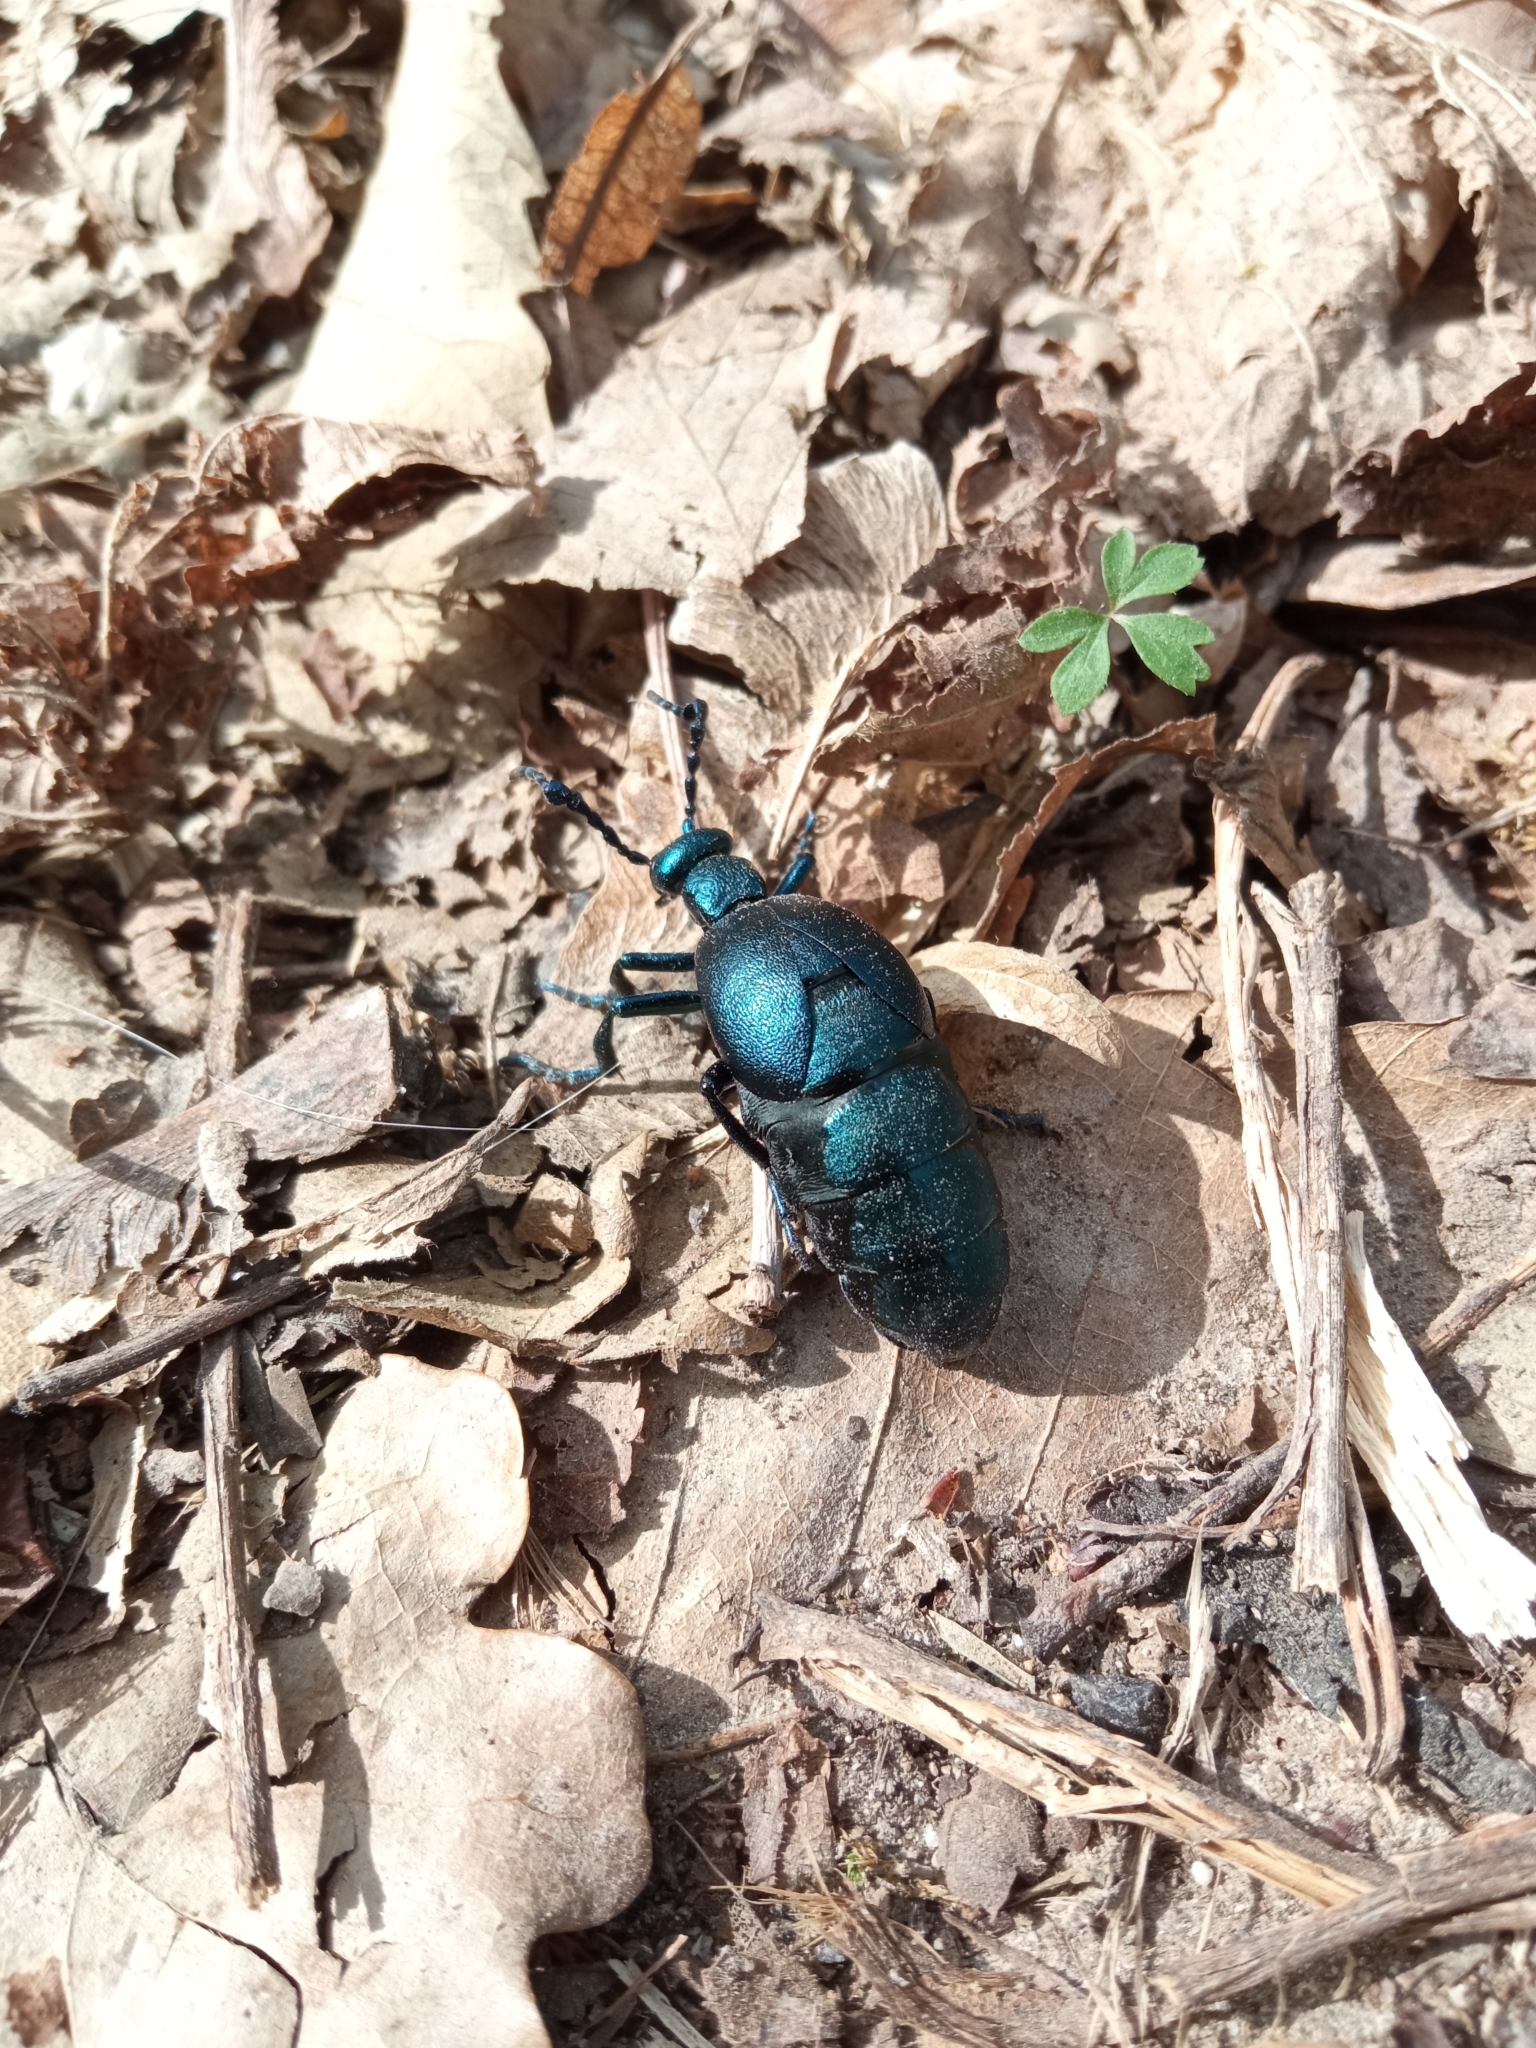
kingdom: Animalia
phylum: Arthropoda
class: Insecta
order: Coleoptera
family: Meloidae
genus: Meloe
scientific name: Meloe violaceus
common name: Violet oil-beetle
